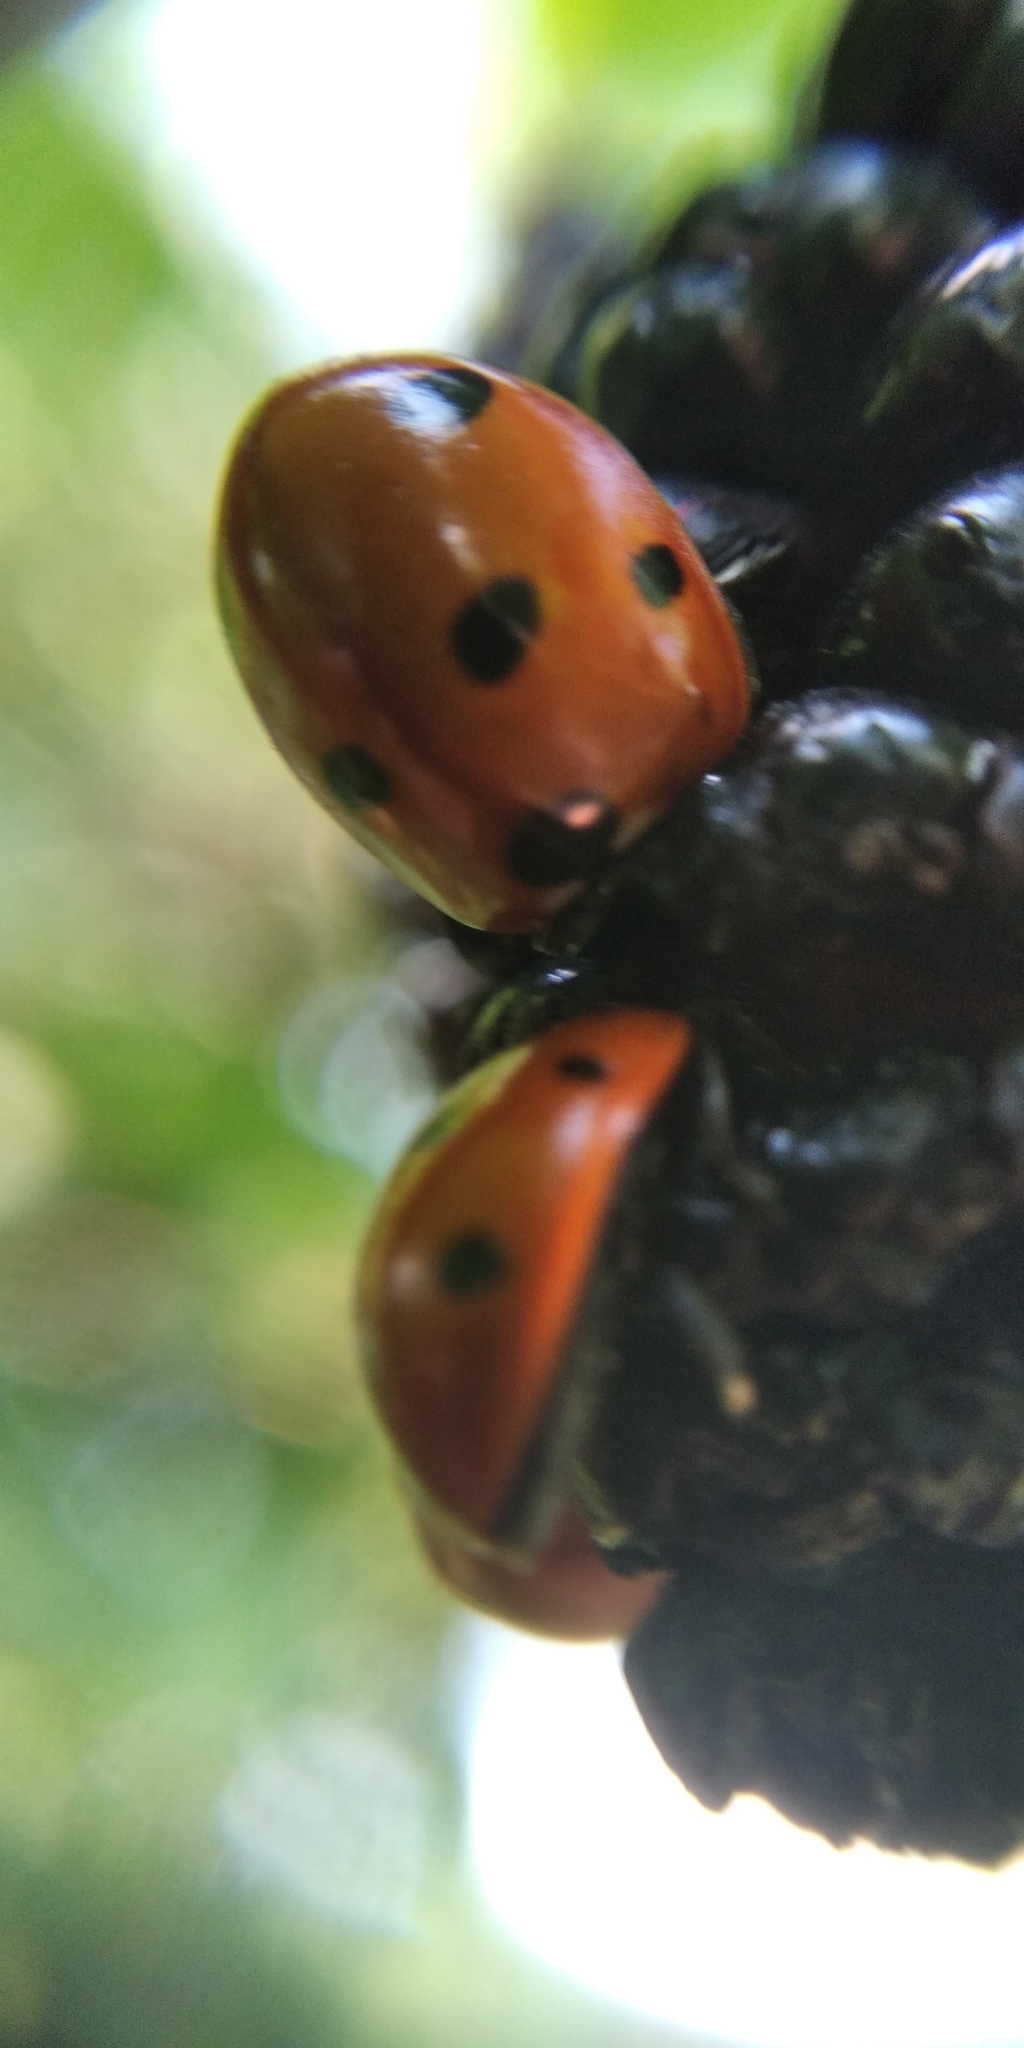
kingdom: Animalia
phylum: Arthropoda
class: Insecta
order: Coleoptera
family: Coccinellidae
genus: Coccinella
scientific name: Coccinella septempunctata
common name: Sevenspotted lady beetle
